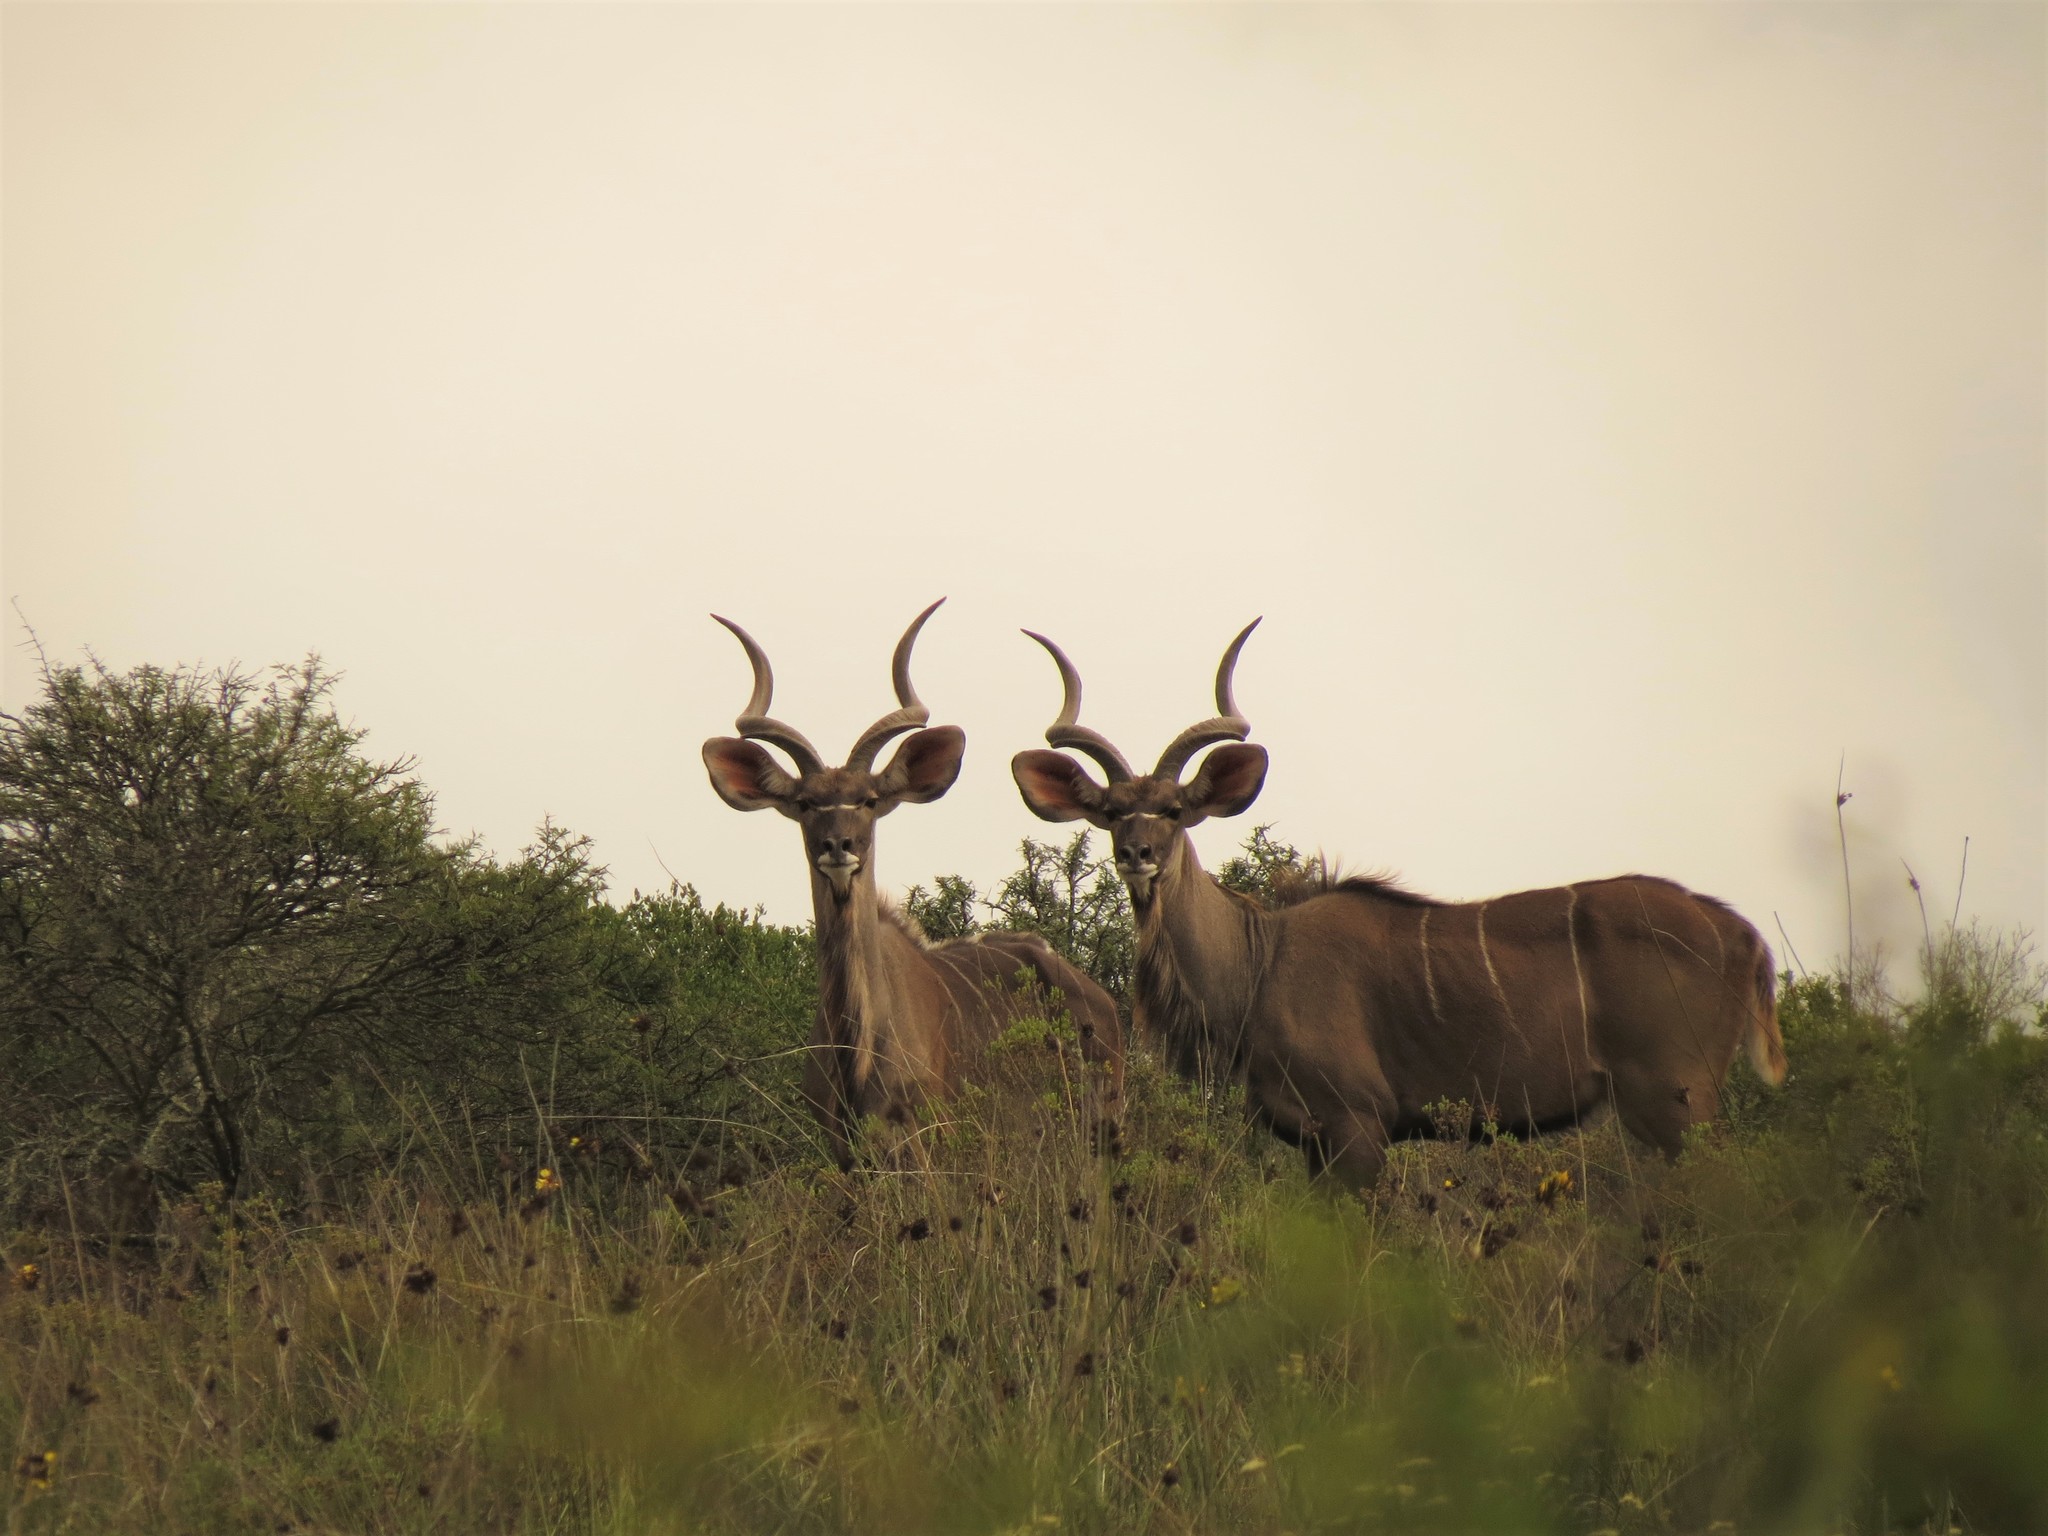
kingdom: Animalia
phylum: Chordata
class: Mammalia
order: Artiodactyla
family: Bovidae
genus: Tragelaphus
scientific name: Tragelaphus strepsiceros
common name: Greater kudu
